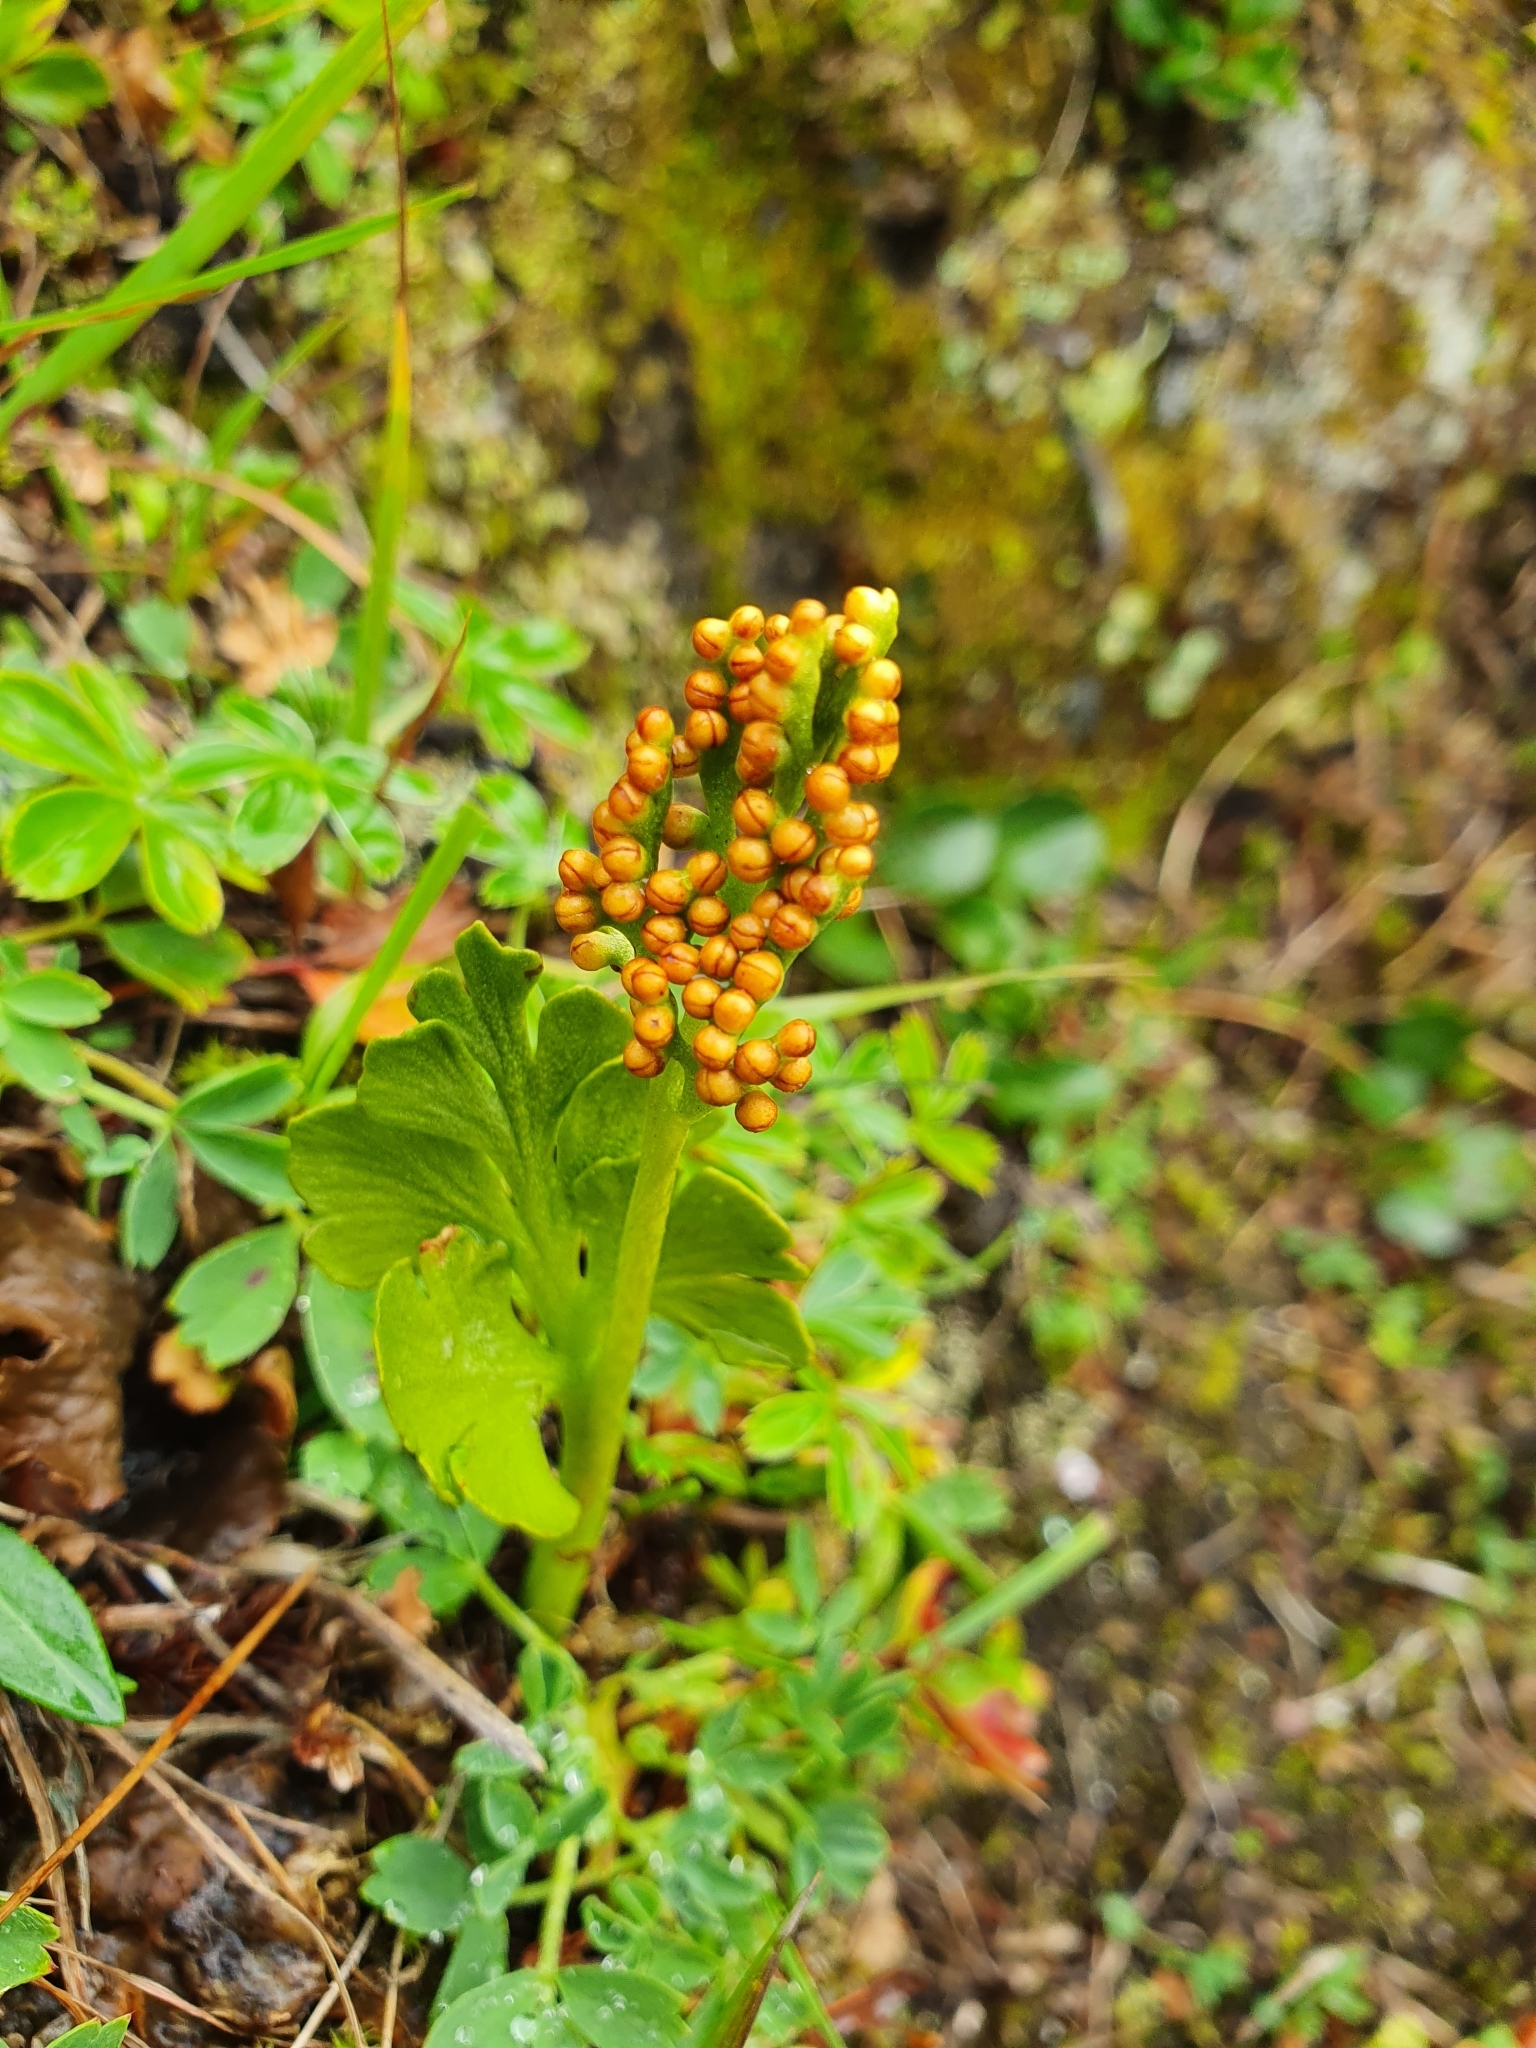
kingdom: Plantae
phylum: Tracheophyta
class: Polypodiopsida
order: Ophioglossales
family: Ophioglossaceae
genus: Botrychium
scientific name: Botrychium boreale
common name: Boreal moonwort
